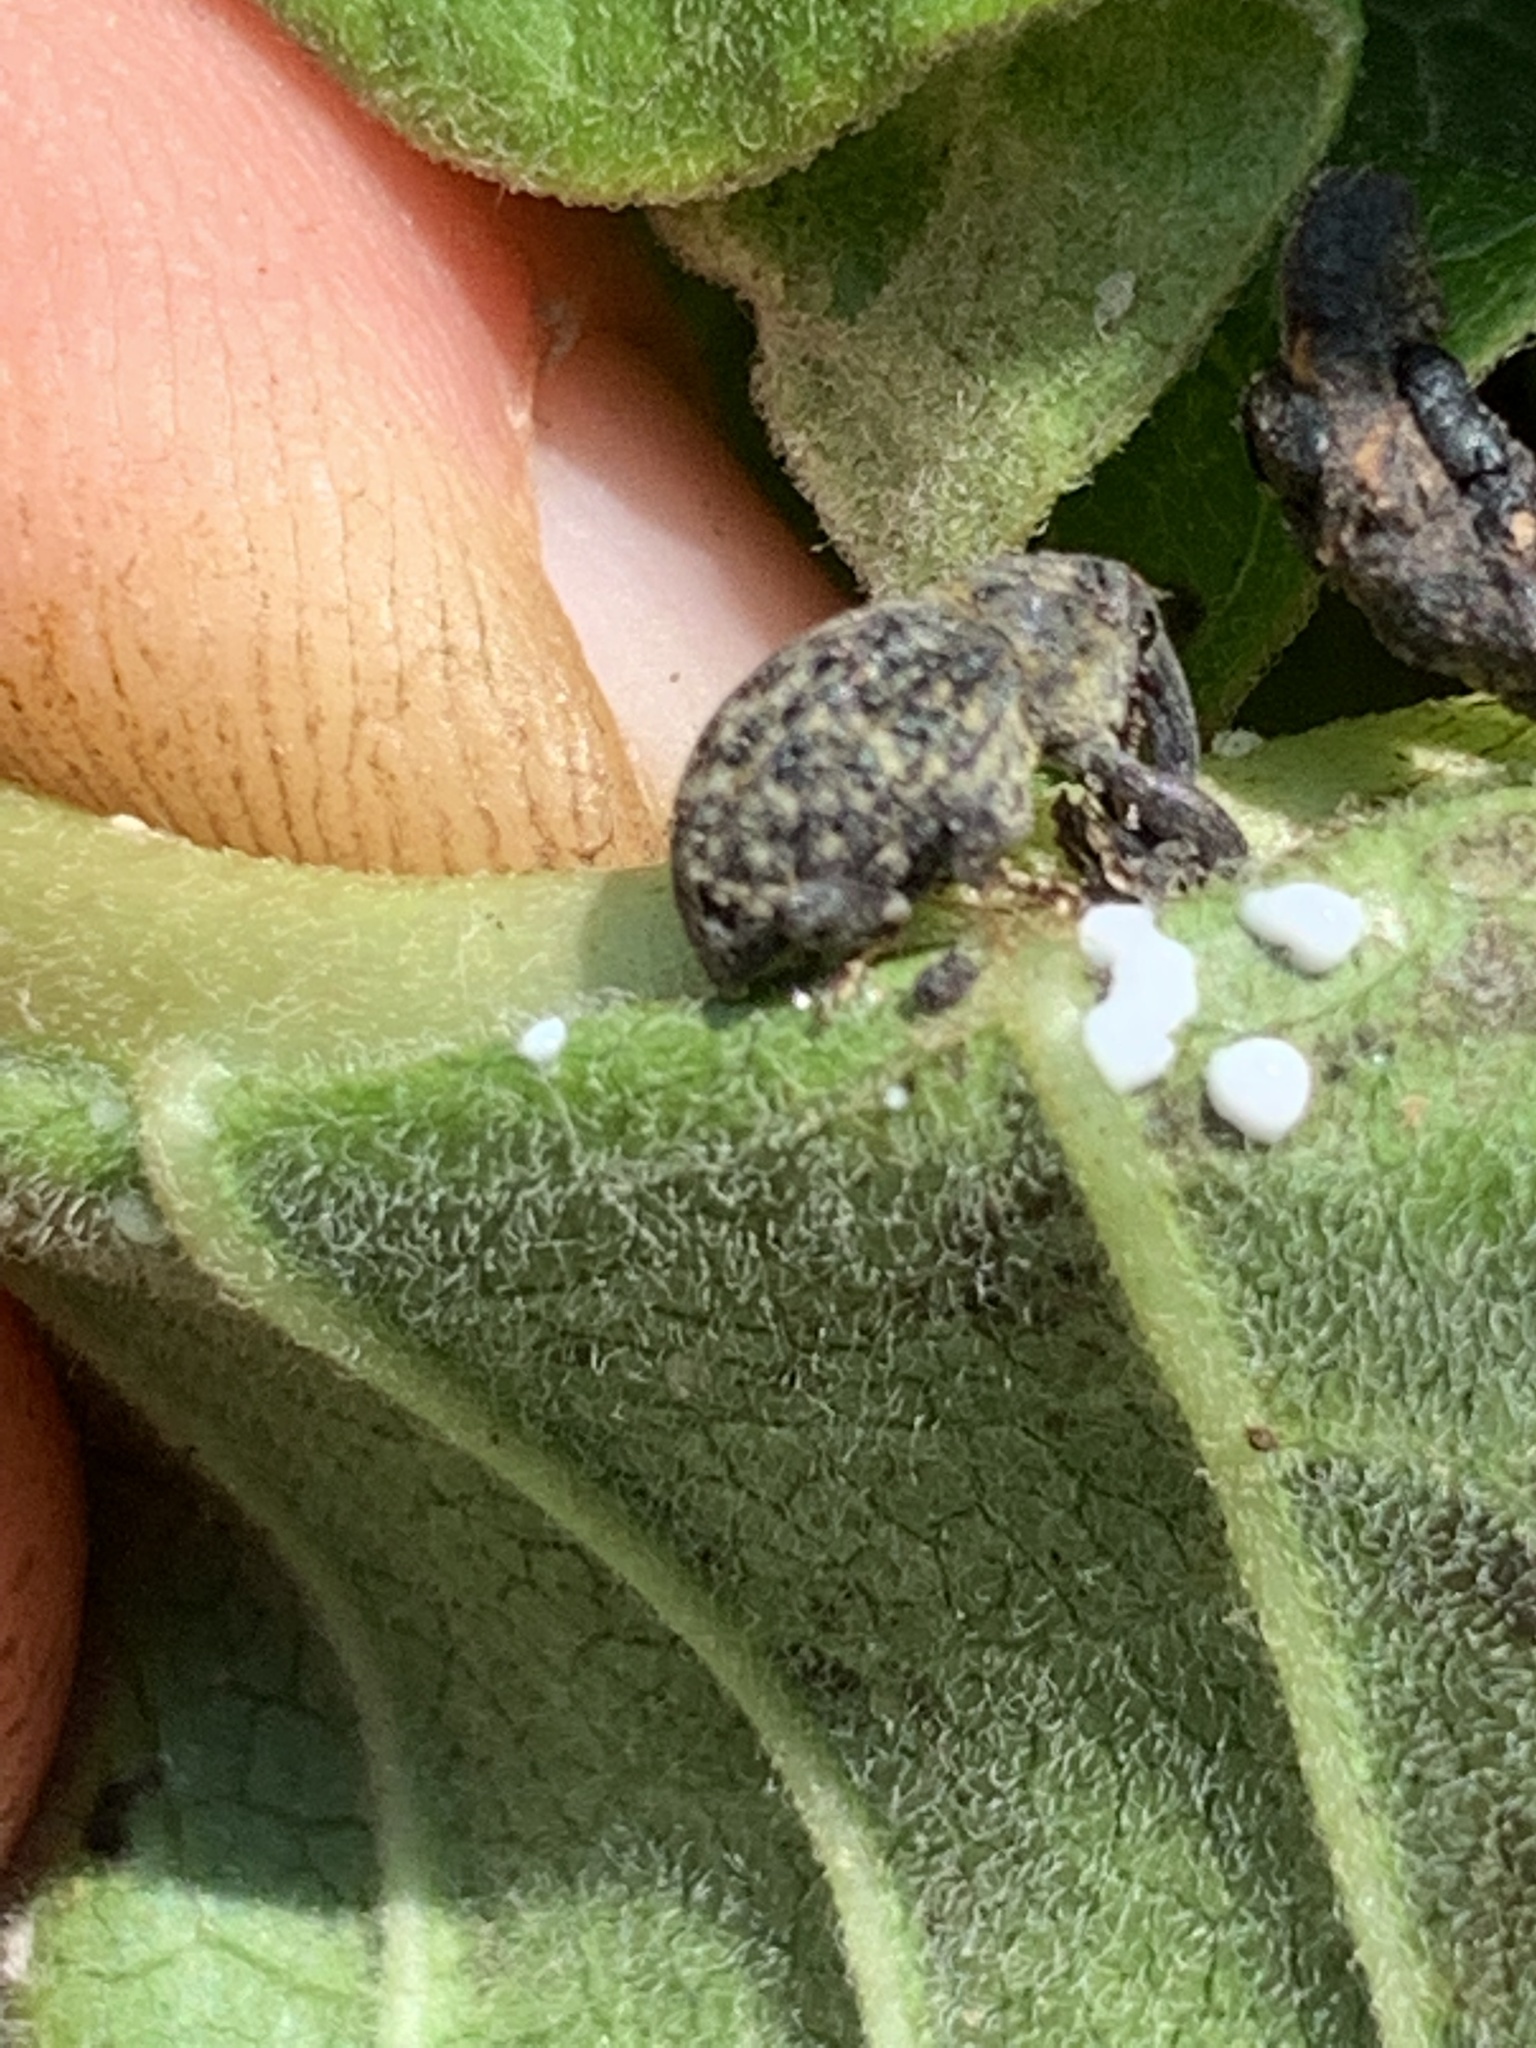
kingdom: Animalia
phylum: Arthropoda
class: Insecta
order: Coleoptera
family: Curculionidae
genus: Rhyssomatus
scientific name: Rhyssomatus lineaticollis
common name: Milkweed stem weevil
